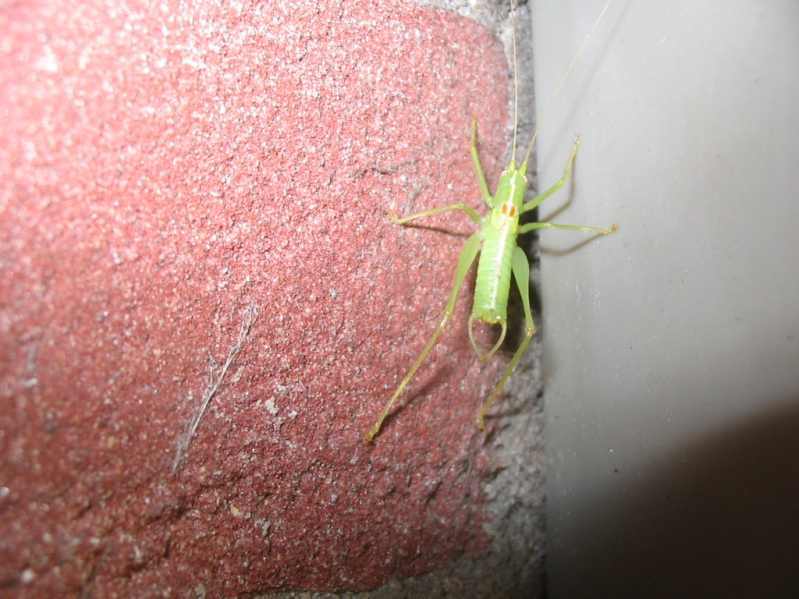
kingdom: Animalia
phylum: Arthropoda
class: Insecta
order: Orthoptera
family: Tettigoniidae
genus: Meconema
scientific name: Meconema meridionale
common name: Southern oak bush-cricket
